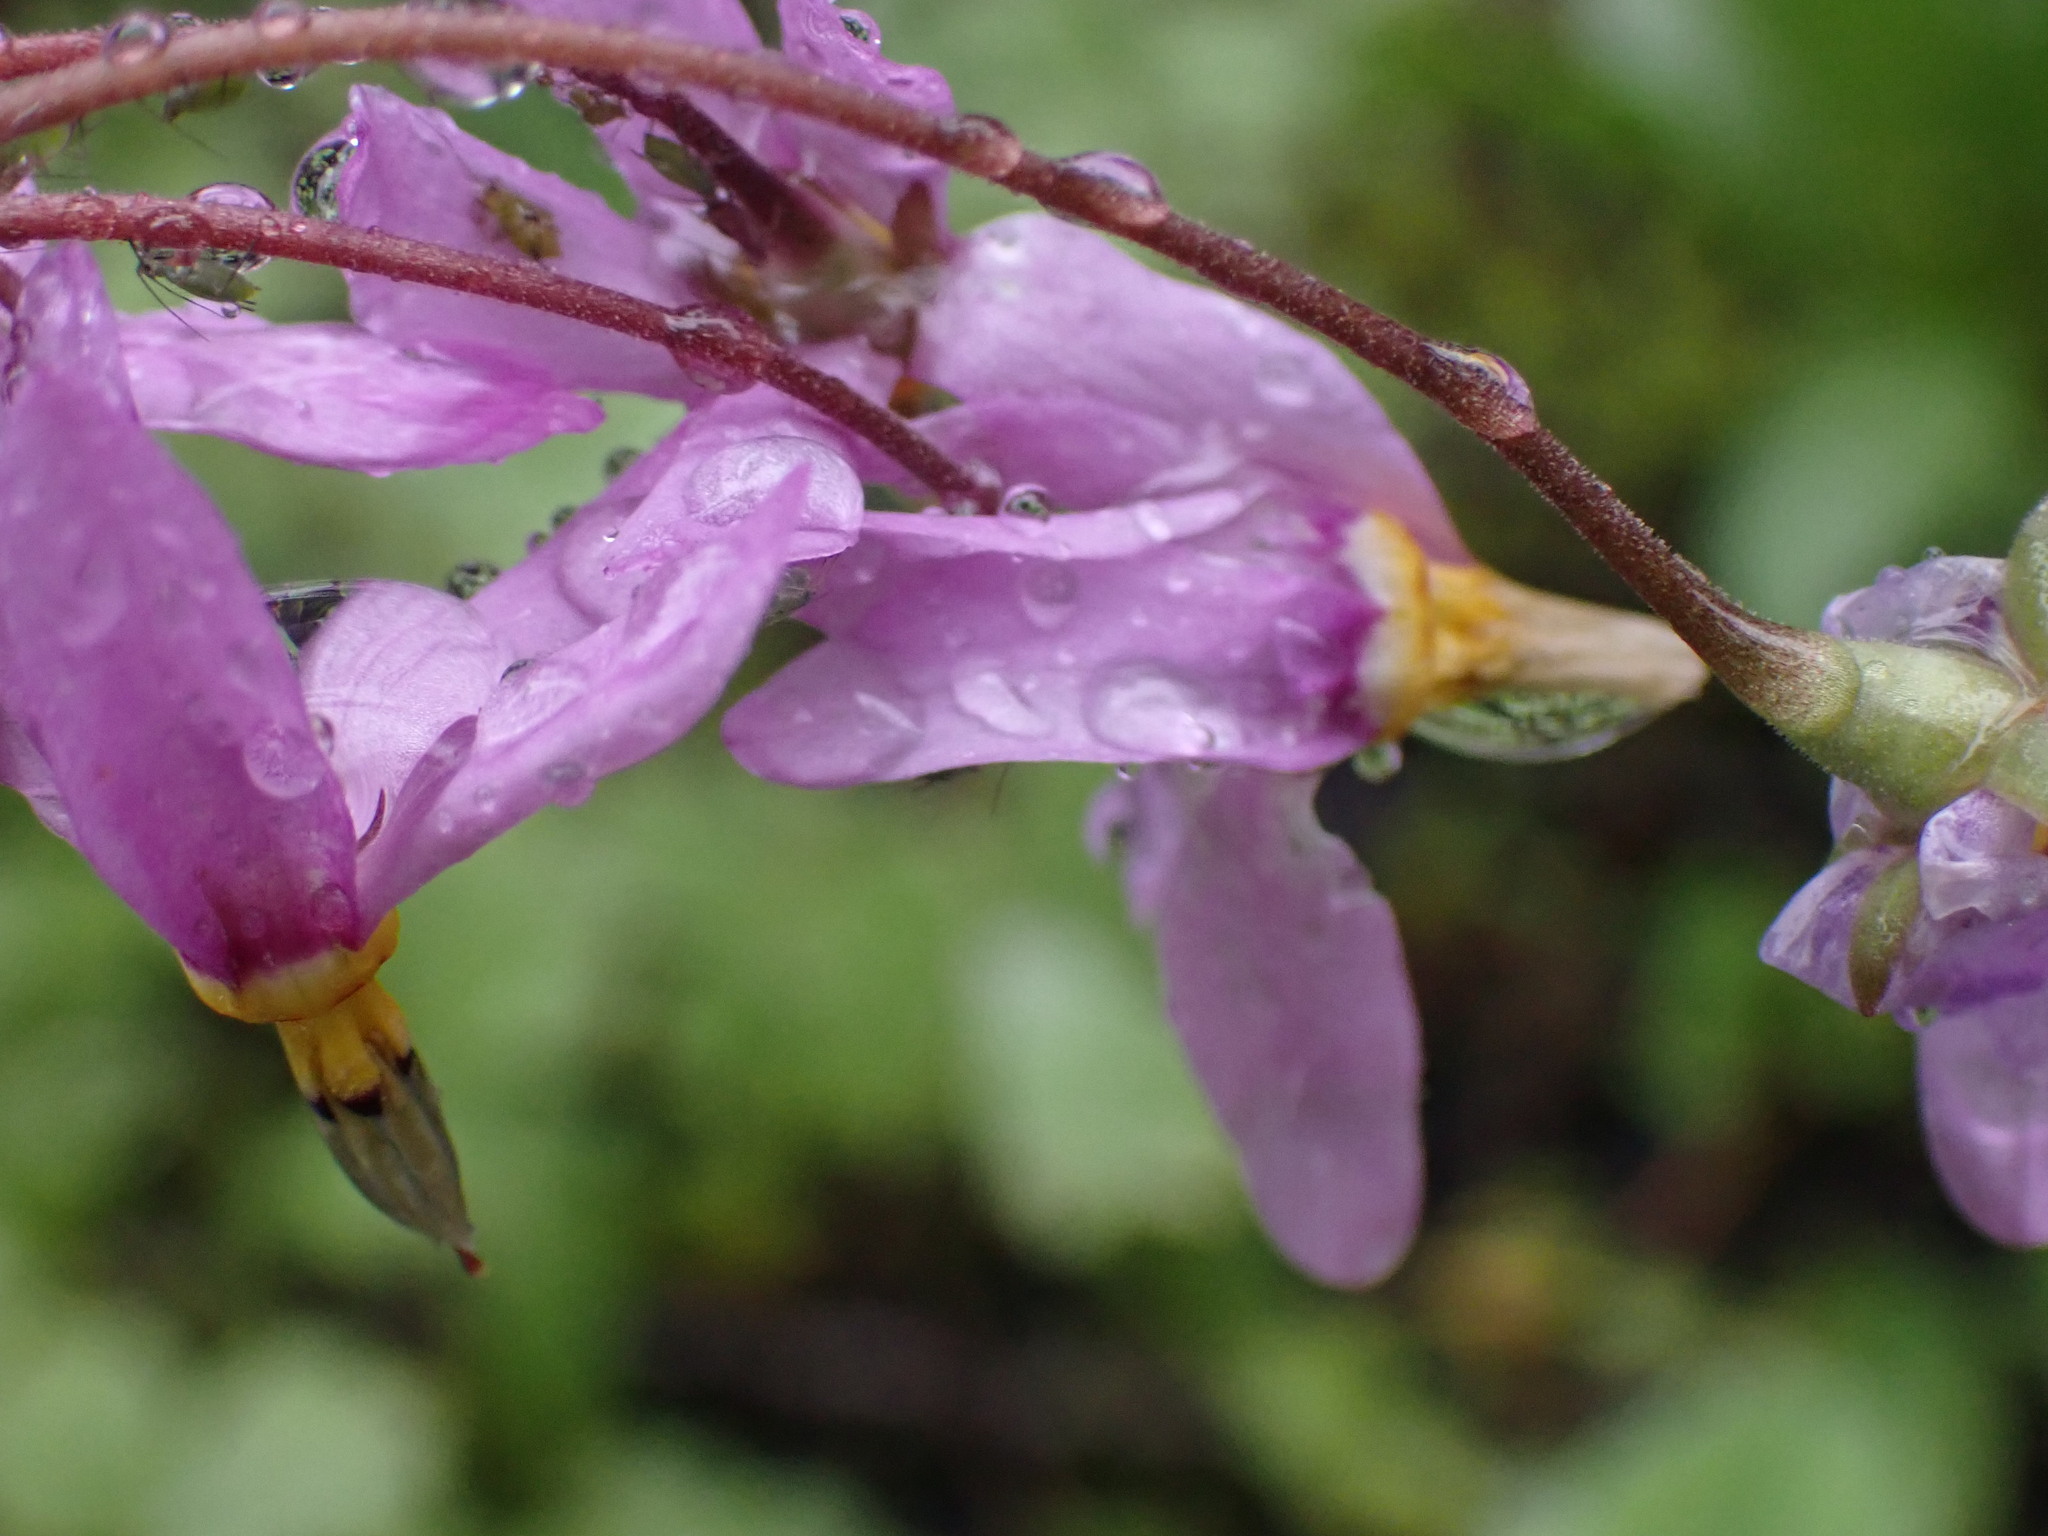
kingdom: Plantae
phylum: Tracheophyta
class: Magnoliopsida
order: Ericales
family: Primulaceae
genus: Dodecatheon
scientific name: Dodecatheon pulchellum
